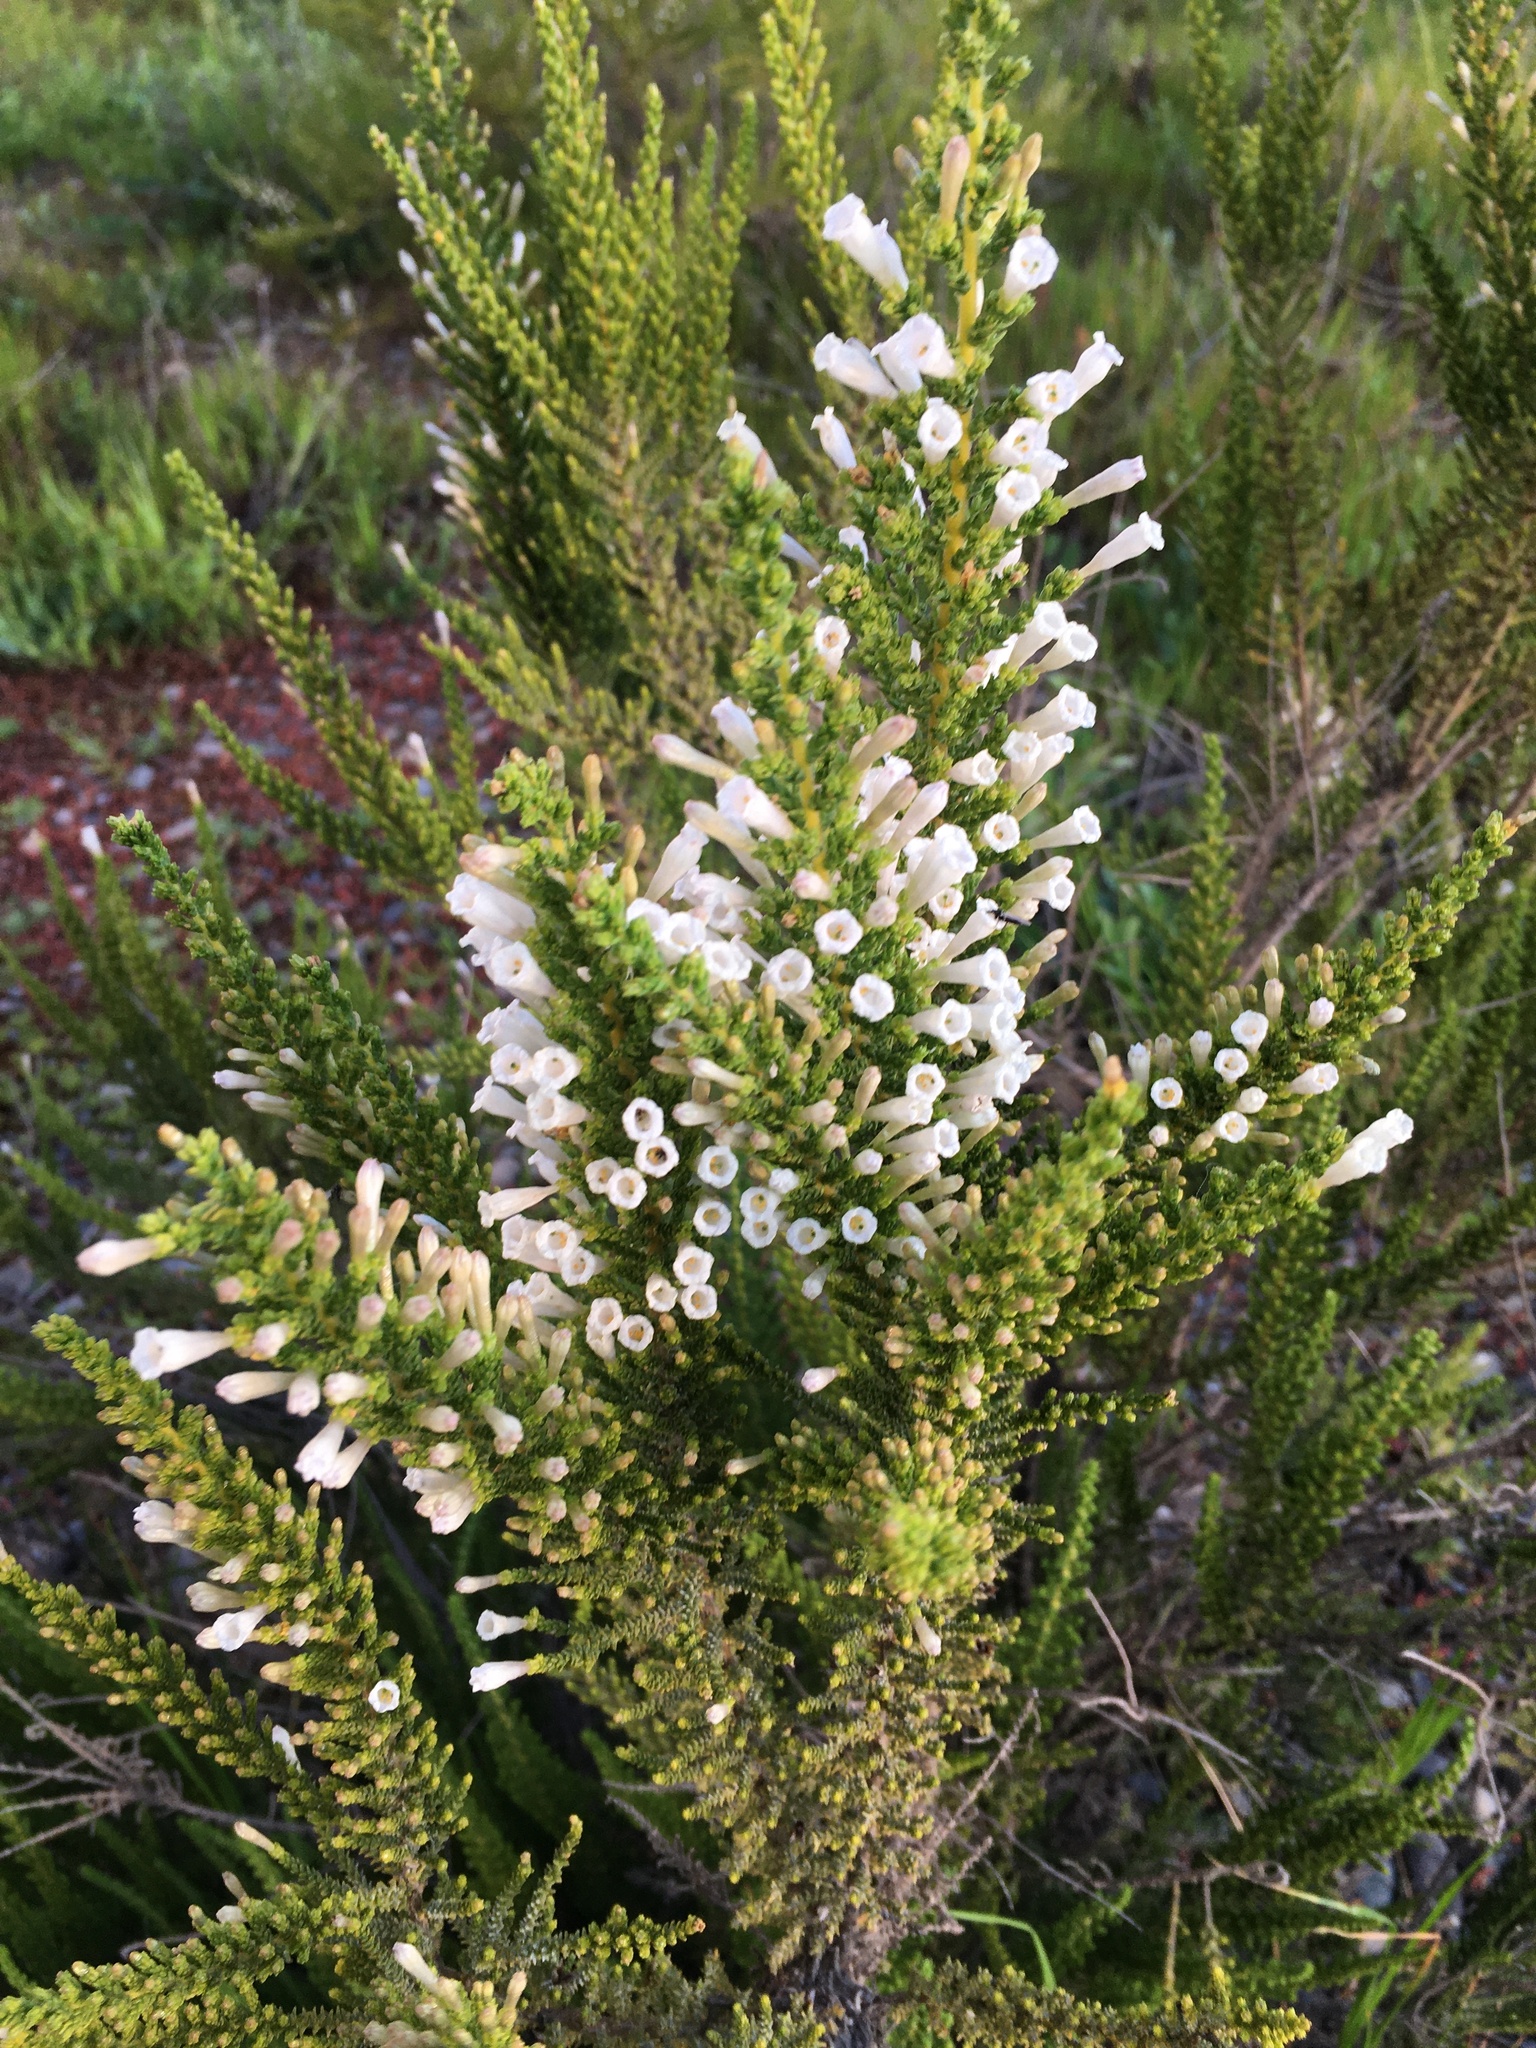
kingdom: Plantae
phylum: Tracheophyta
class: Magnoliopsida
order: Solanales
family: Solanaceae
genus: Fabiana
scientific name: Fabiana imbricata
